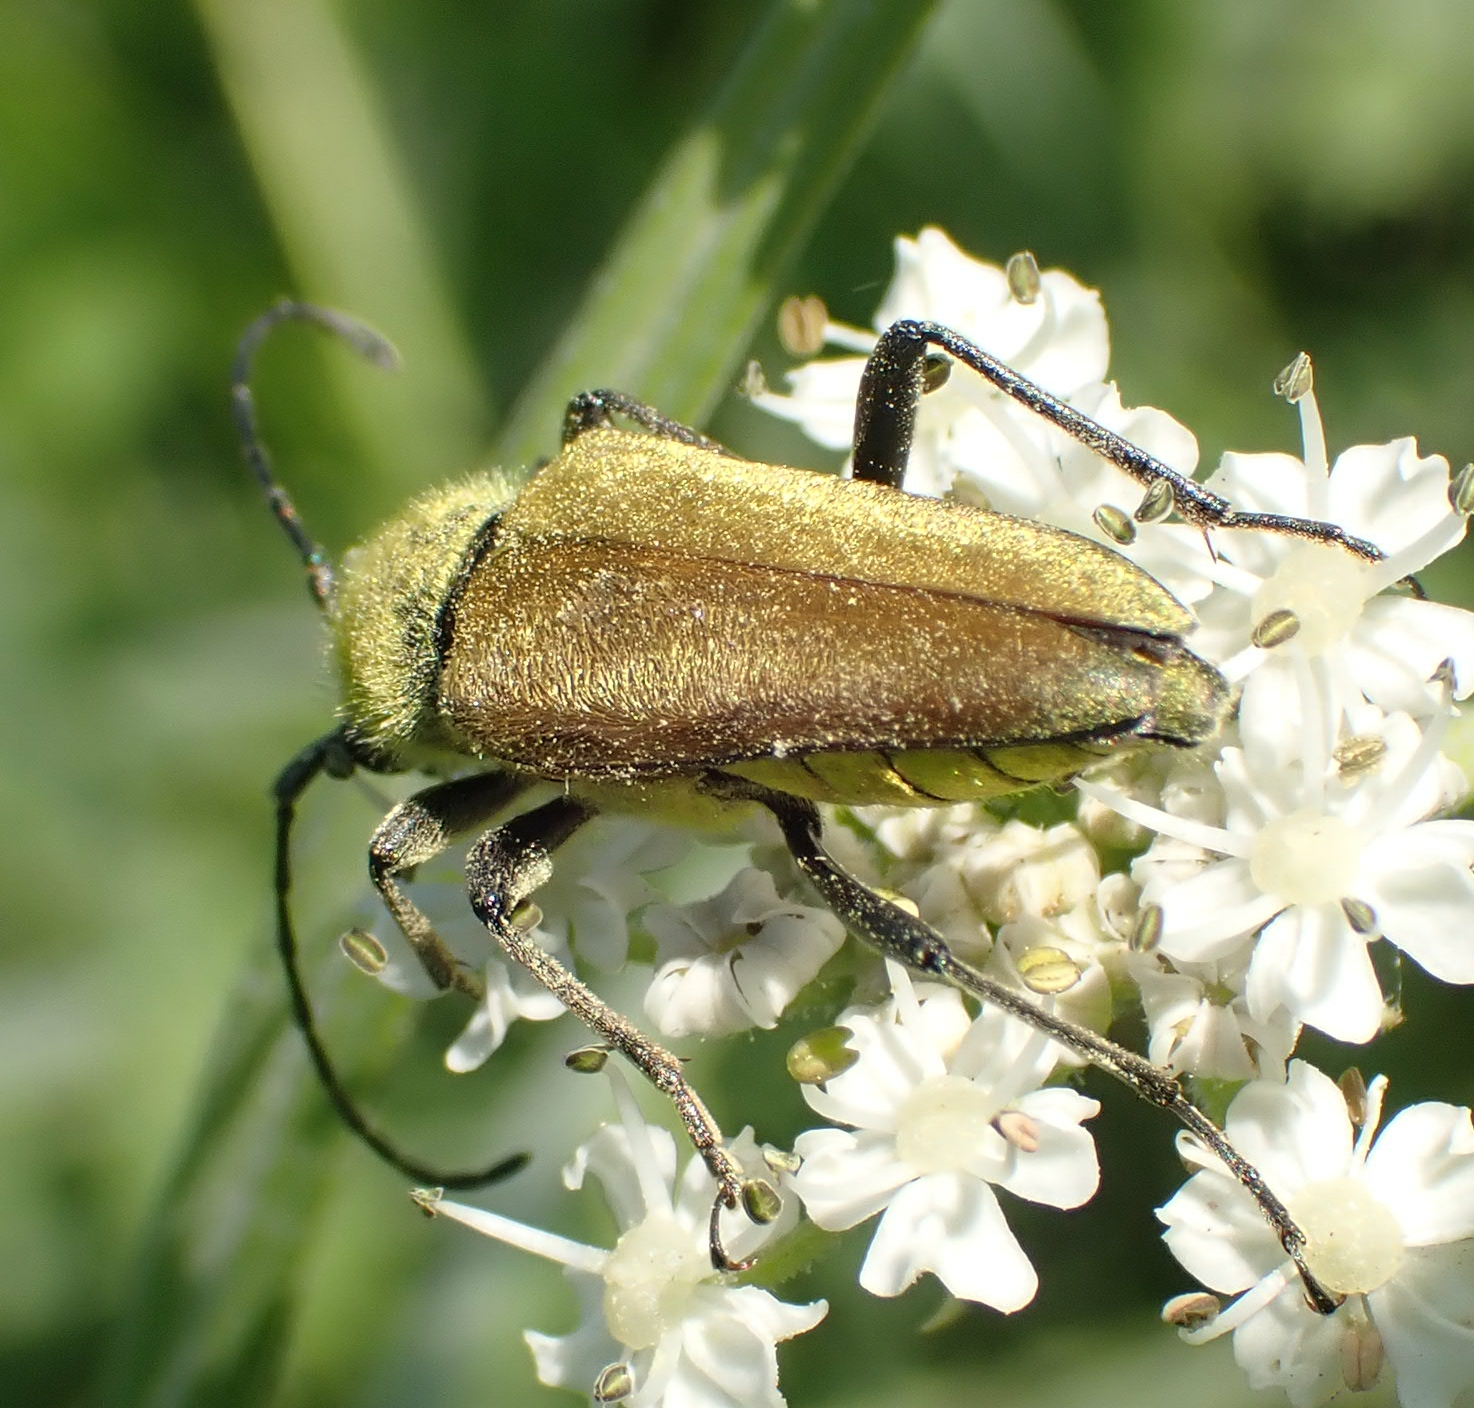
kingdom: Animalia
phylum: Arthropoda
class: Insecta
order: Coleoptera
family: Cerambycidae
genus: Cosmosalia
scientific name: Cosmosalia chrysocoma
